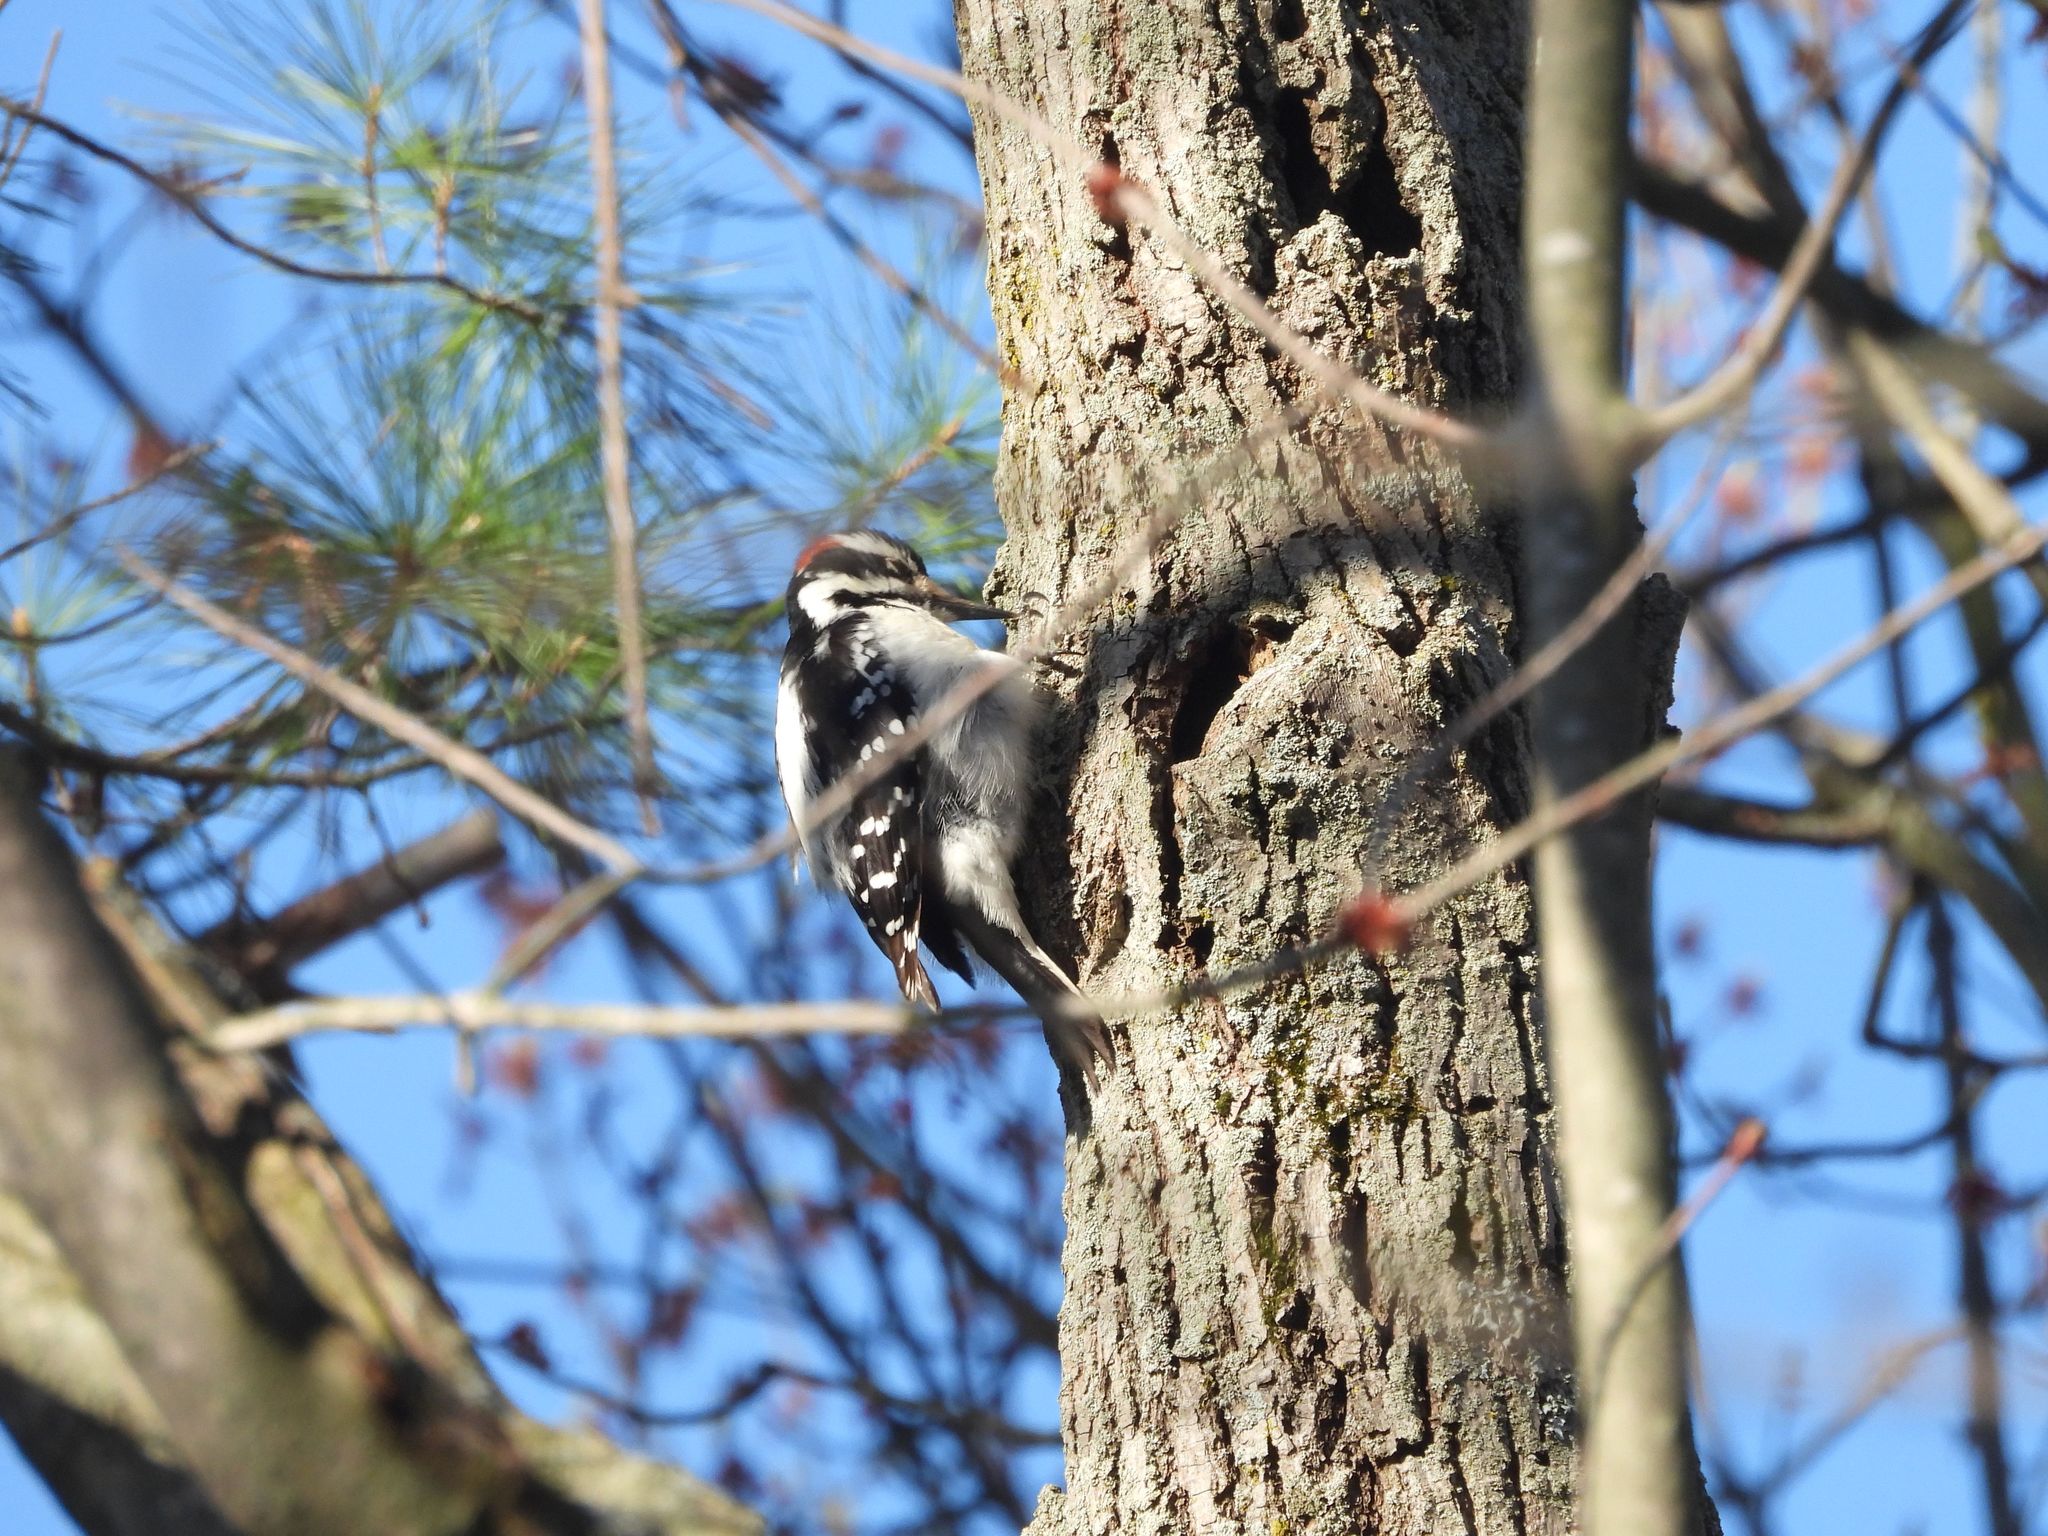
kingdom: Animalia
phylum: Chordata
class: Aves
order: Piciformes
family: Picidae
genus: Leuconotopicus
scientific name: Leuconotopicus villosus
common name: Hairy woodpecker
